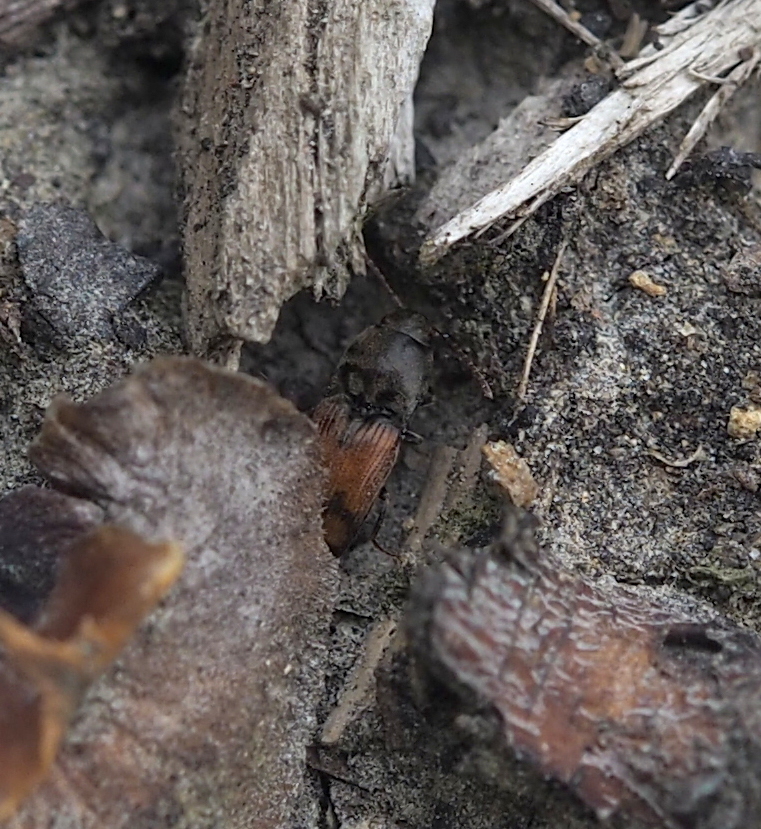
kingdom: Animalia
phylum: Arthropoda
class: Insecta
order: Coleoptera
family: Elateridae
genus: Drasterius
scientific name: Drasterius bimaculatus
